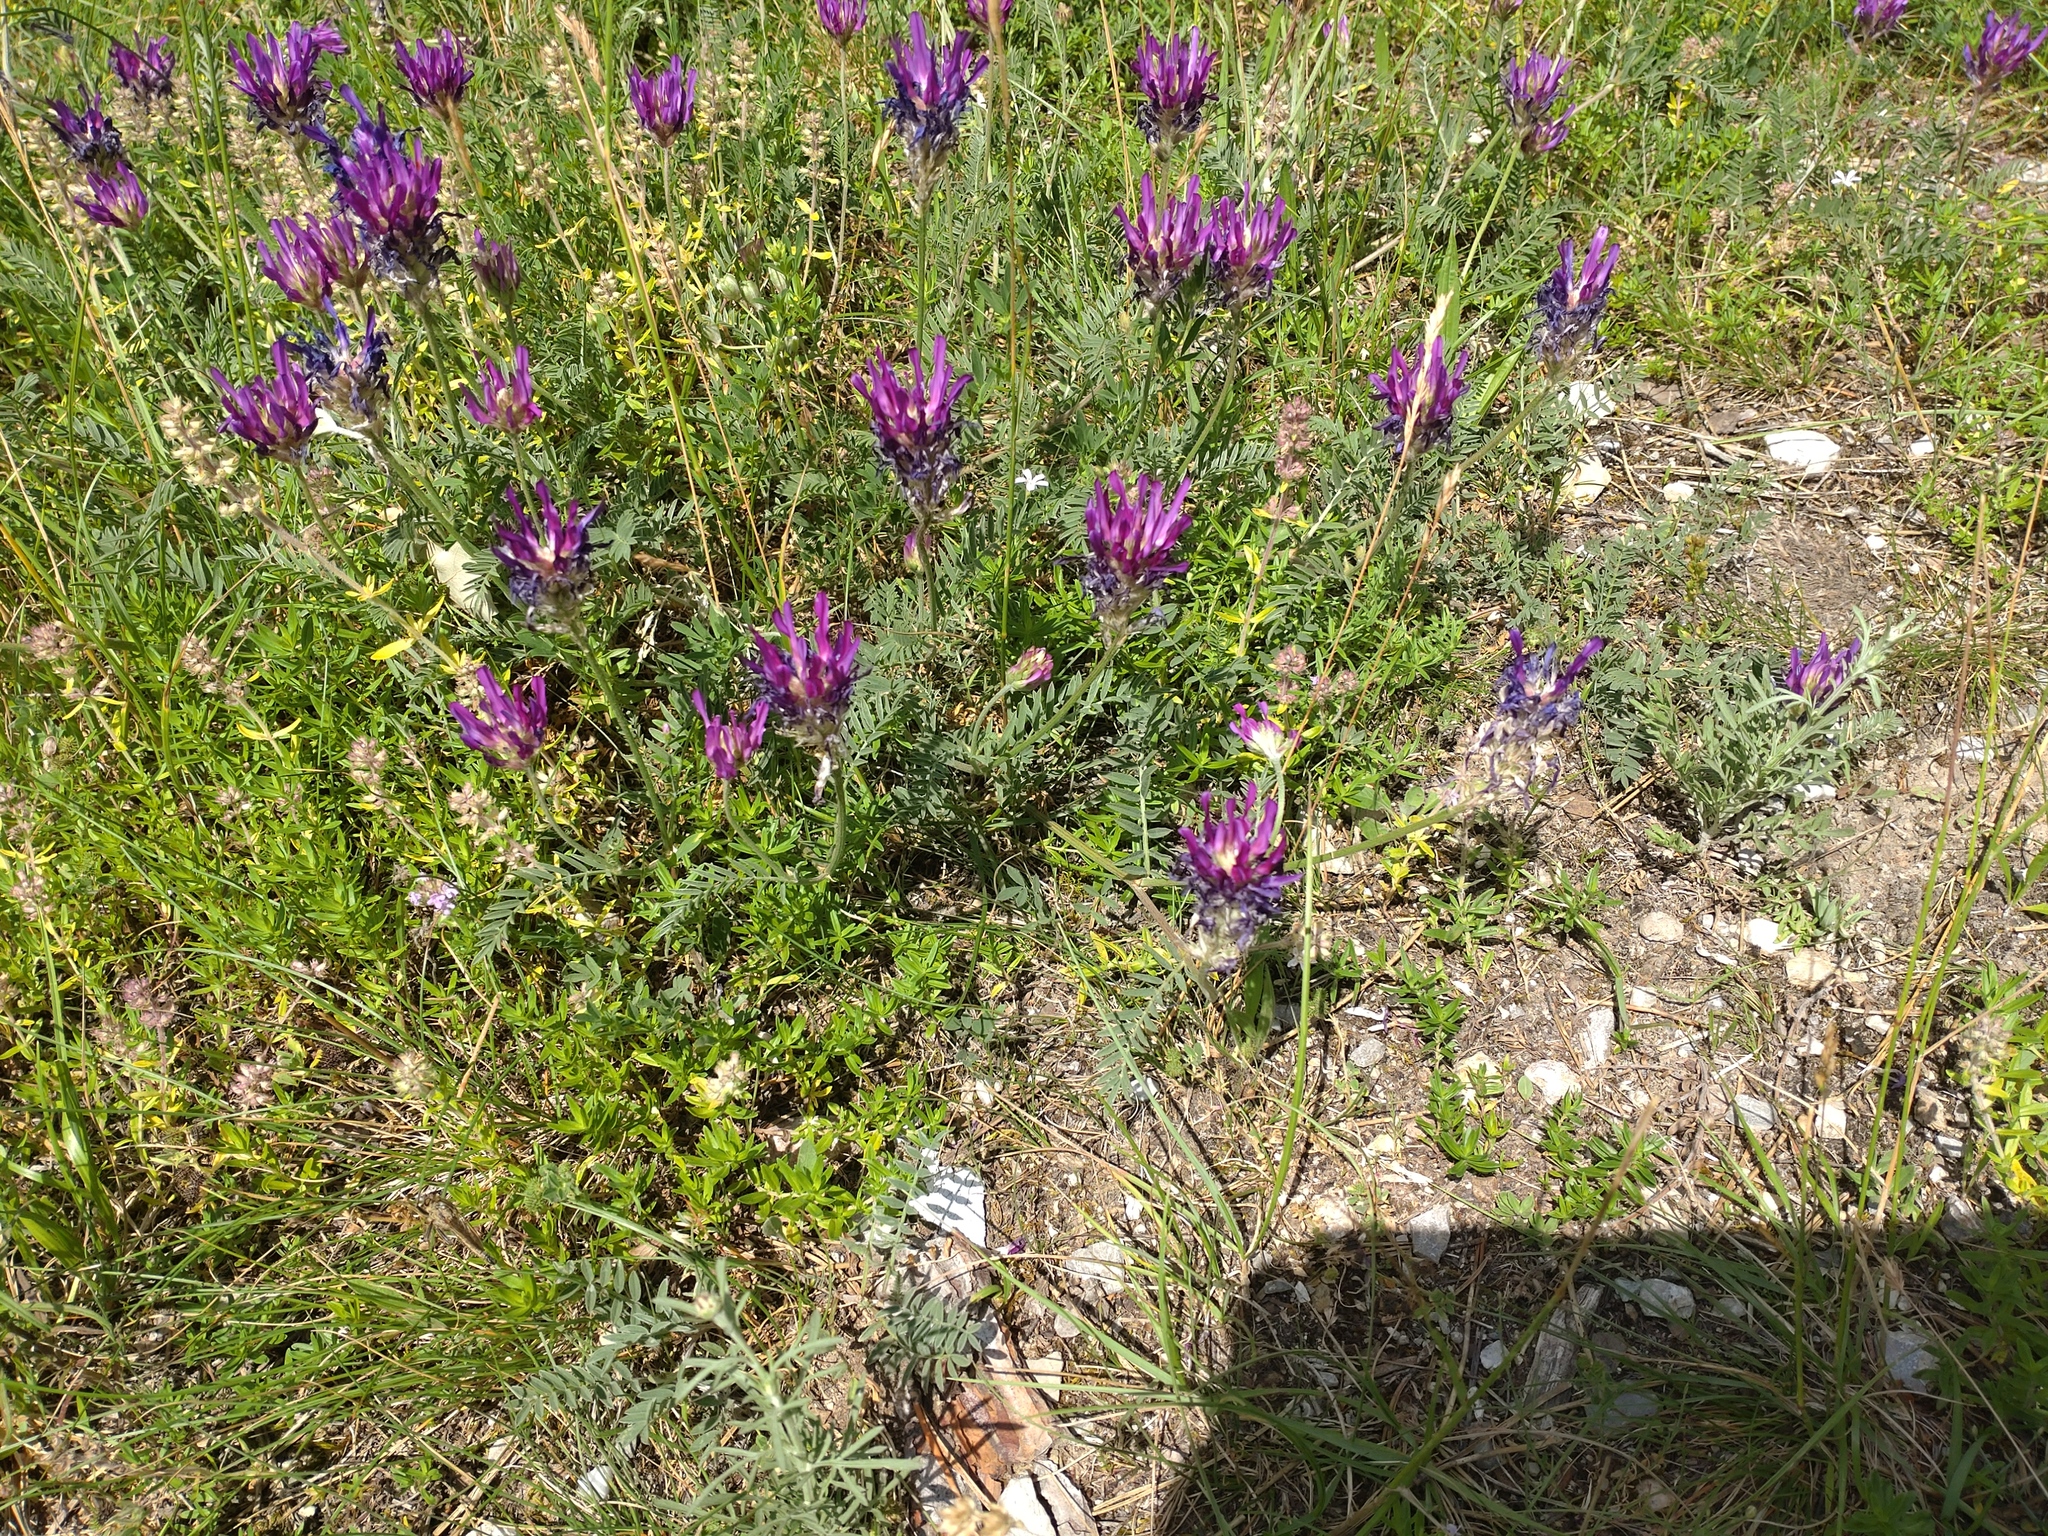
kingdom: Plantae
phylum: Tracheophyta
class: Magnoliopsida
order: Fabales
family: Fabaceae
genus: Astragalus
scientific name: Astragalus onobrychis
